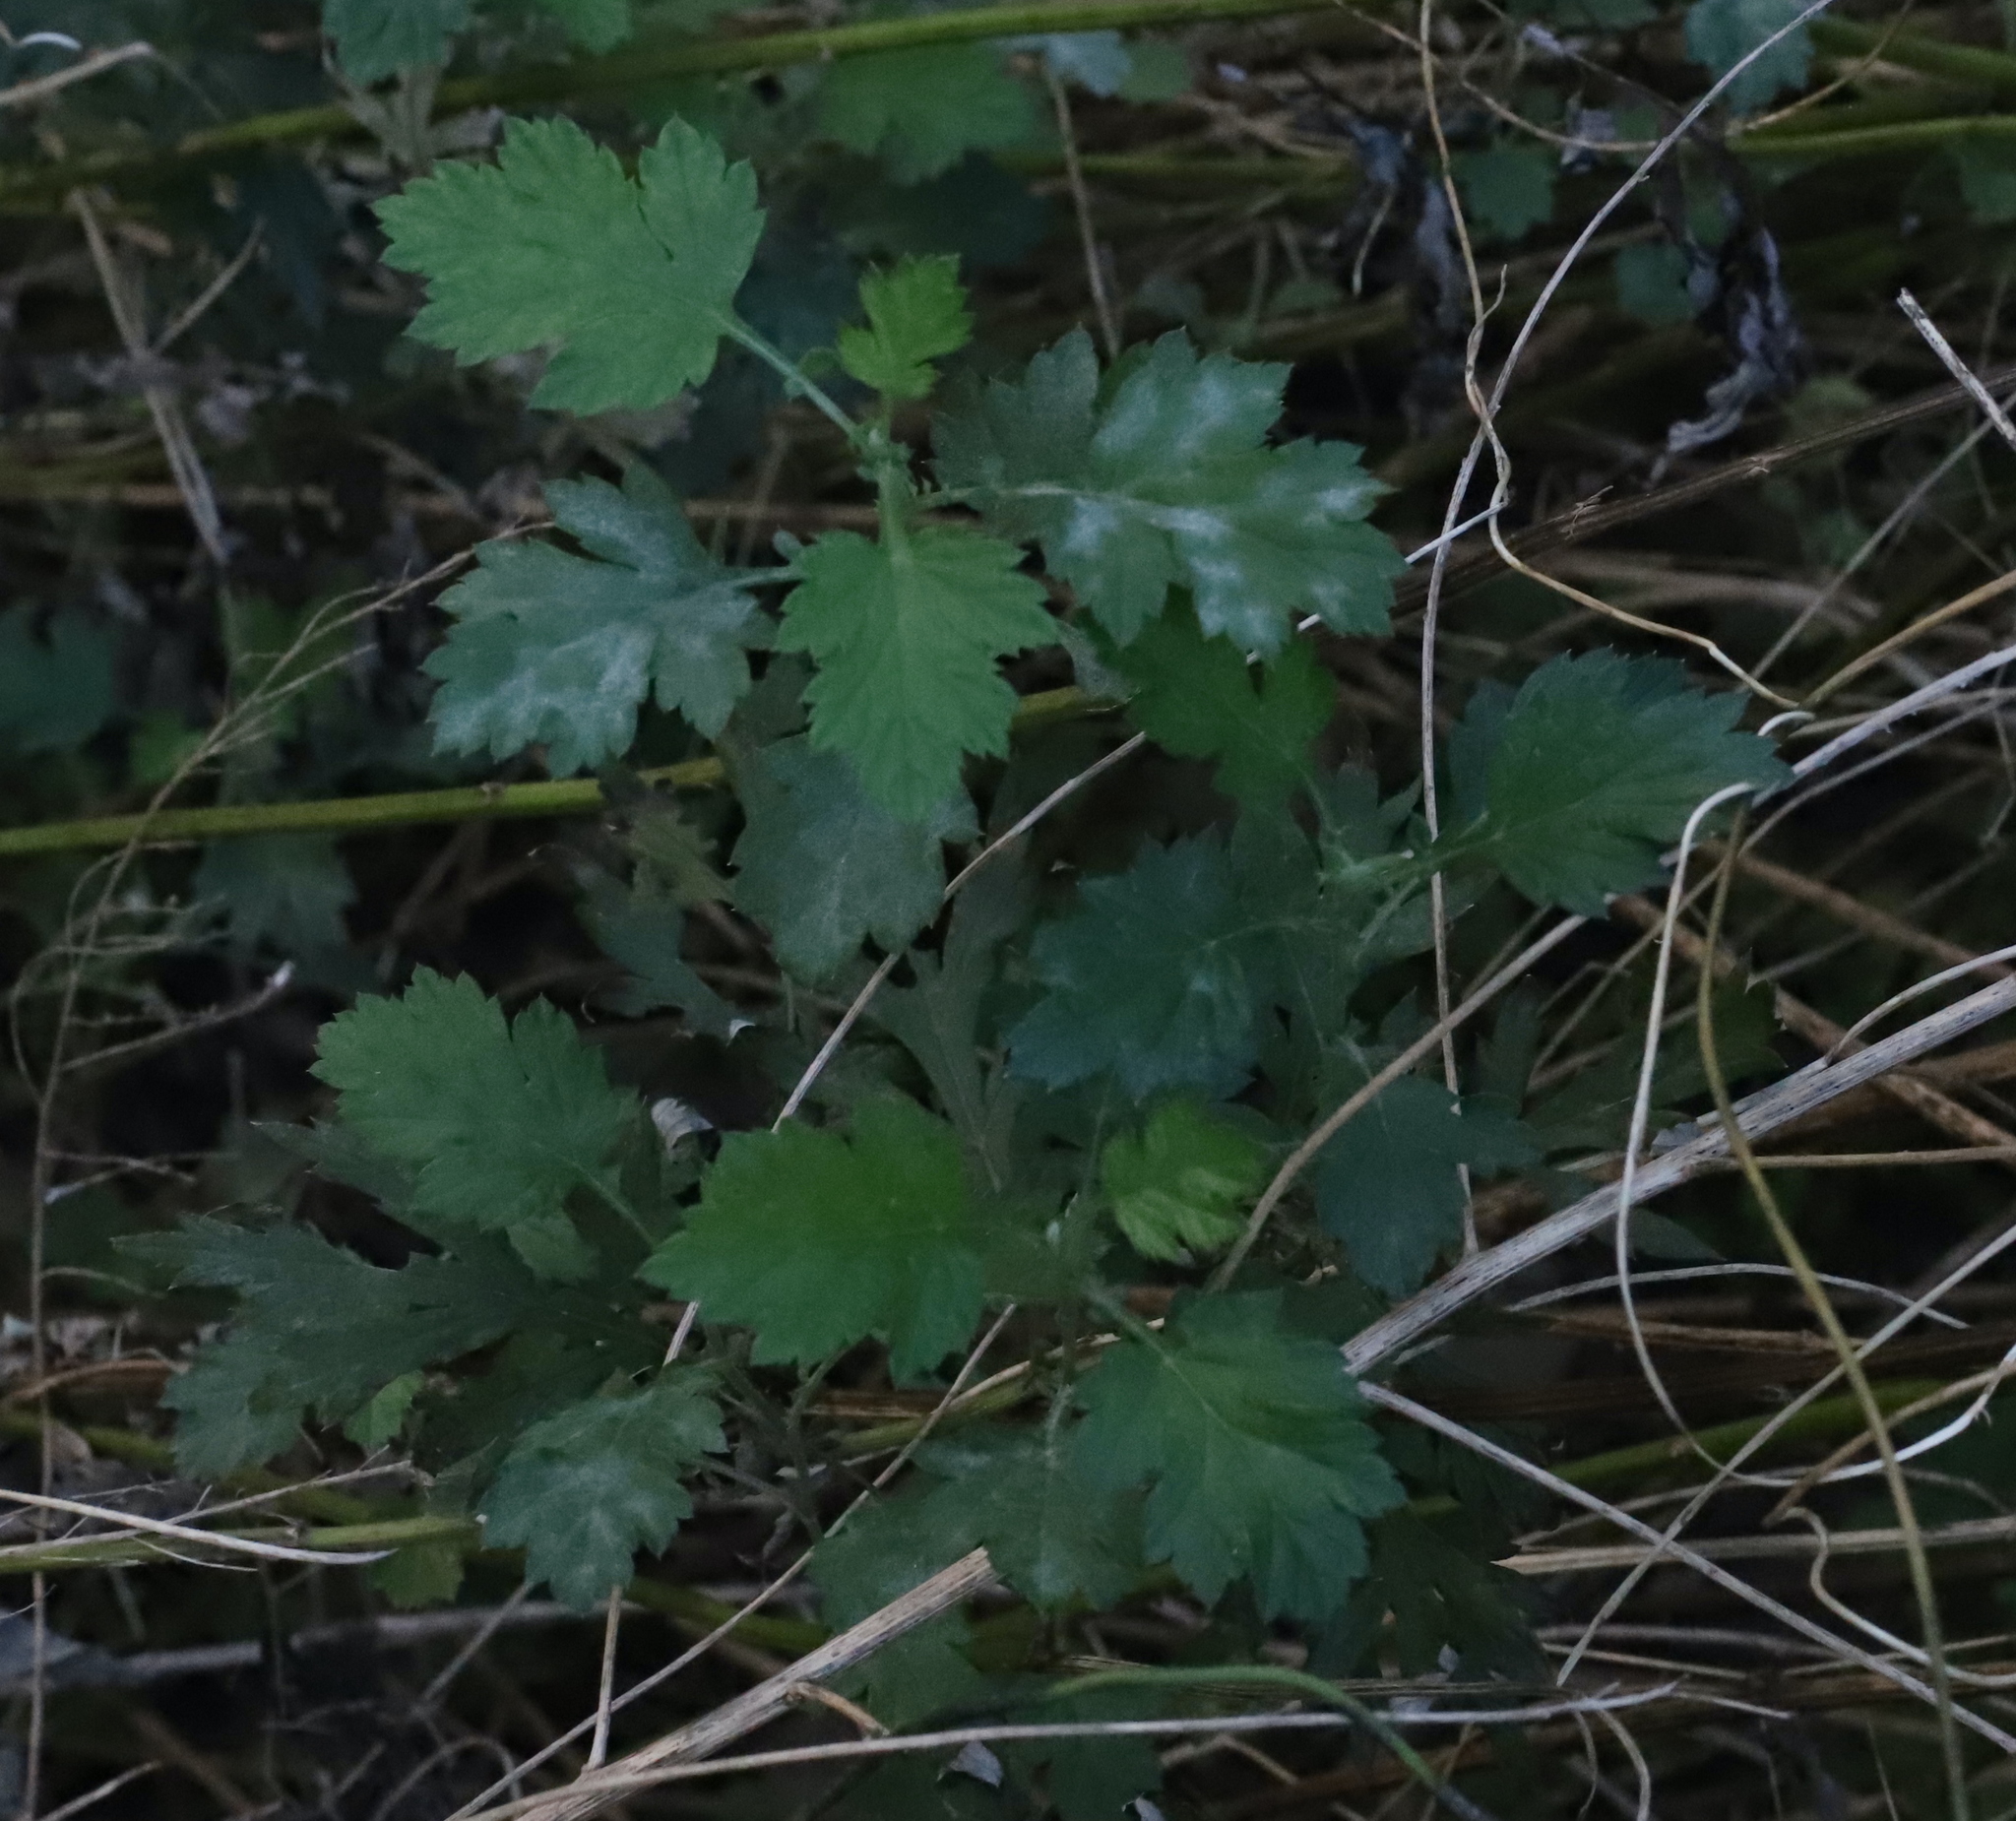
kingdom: Fungi
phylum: Ascomycota
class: Leotiomycetes
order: Helotiales
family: Erysiphaceae
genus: Golovinomyces
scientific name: Golovinomyces artemisiae
